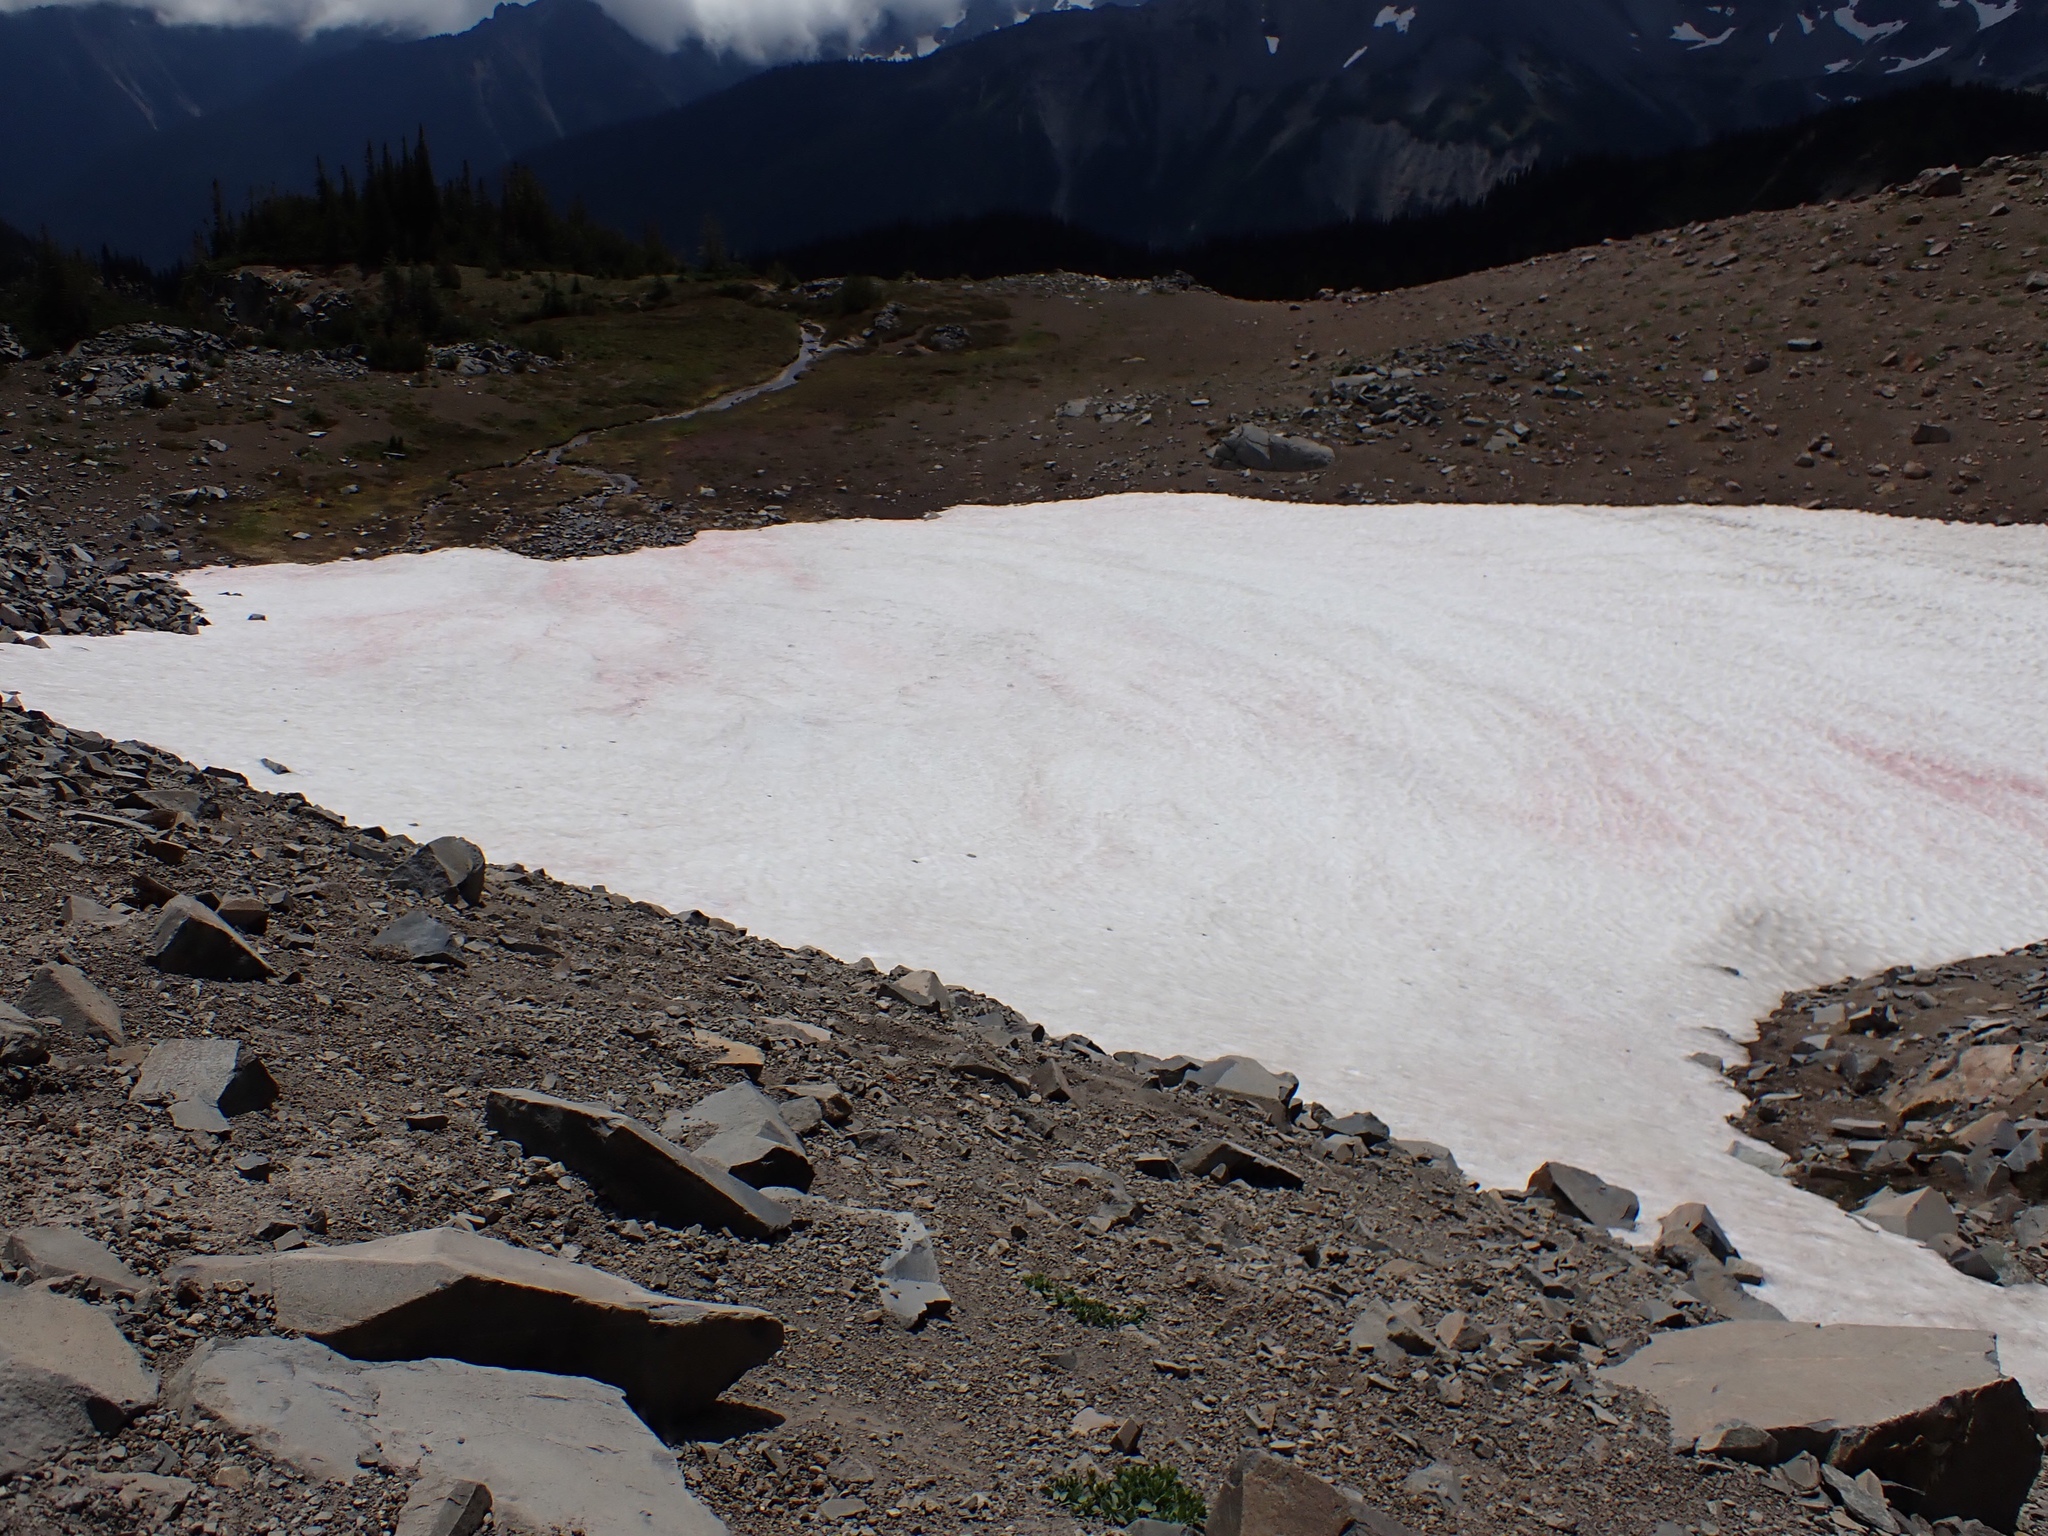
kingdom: Plantae
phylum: Chlorophyta
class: Chlorophyceae
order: Volvocales
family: Chlamydomonadaceae
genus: Chlamydomonas
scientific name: Chlamydomonas nivalis
